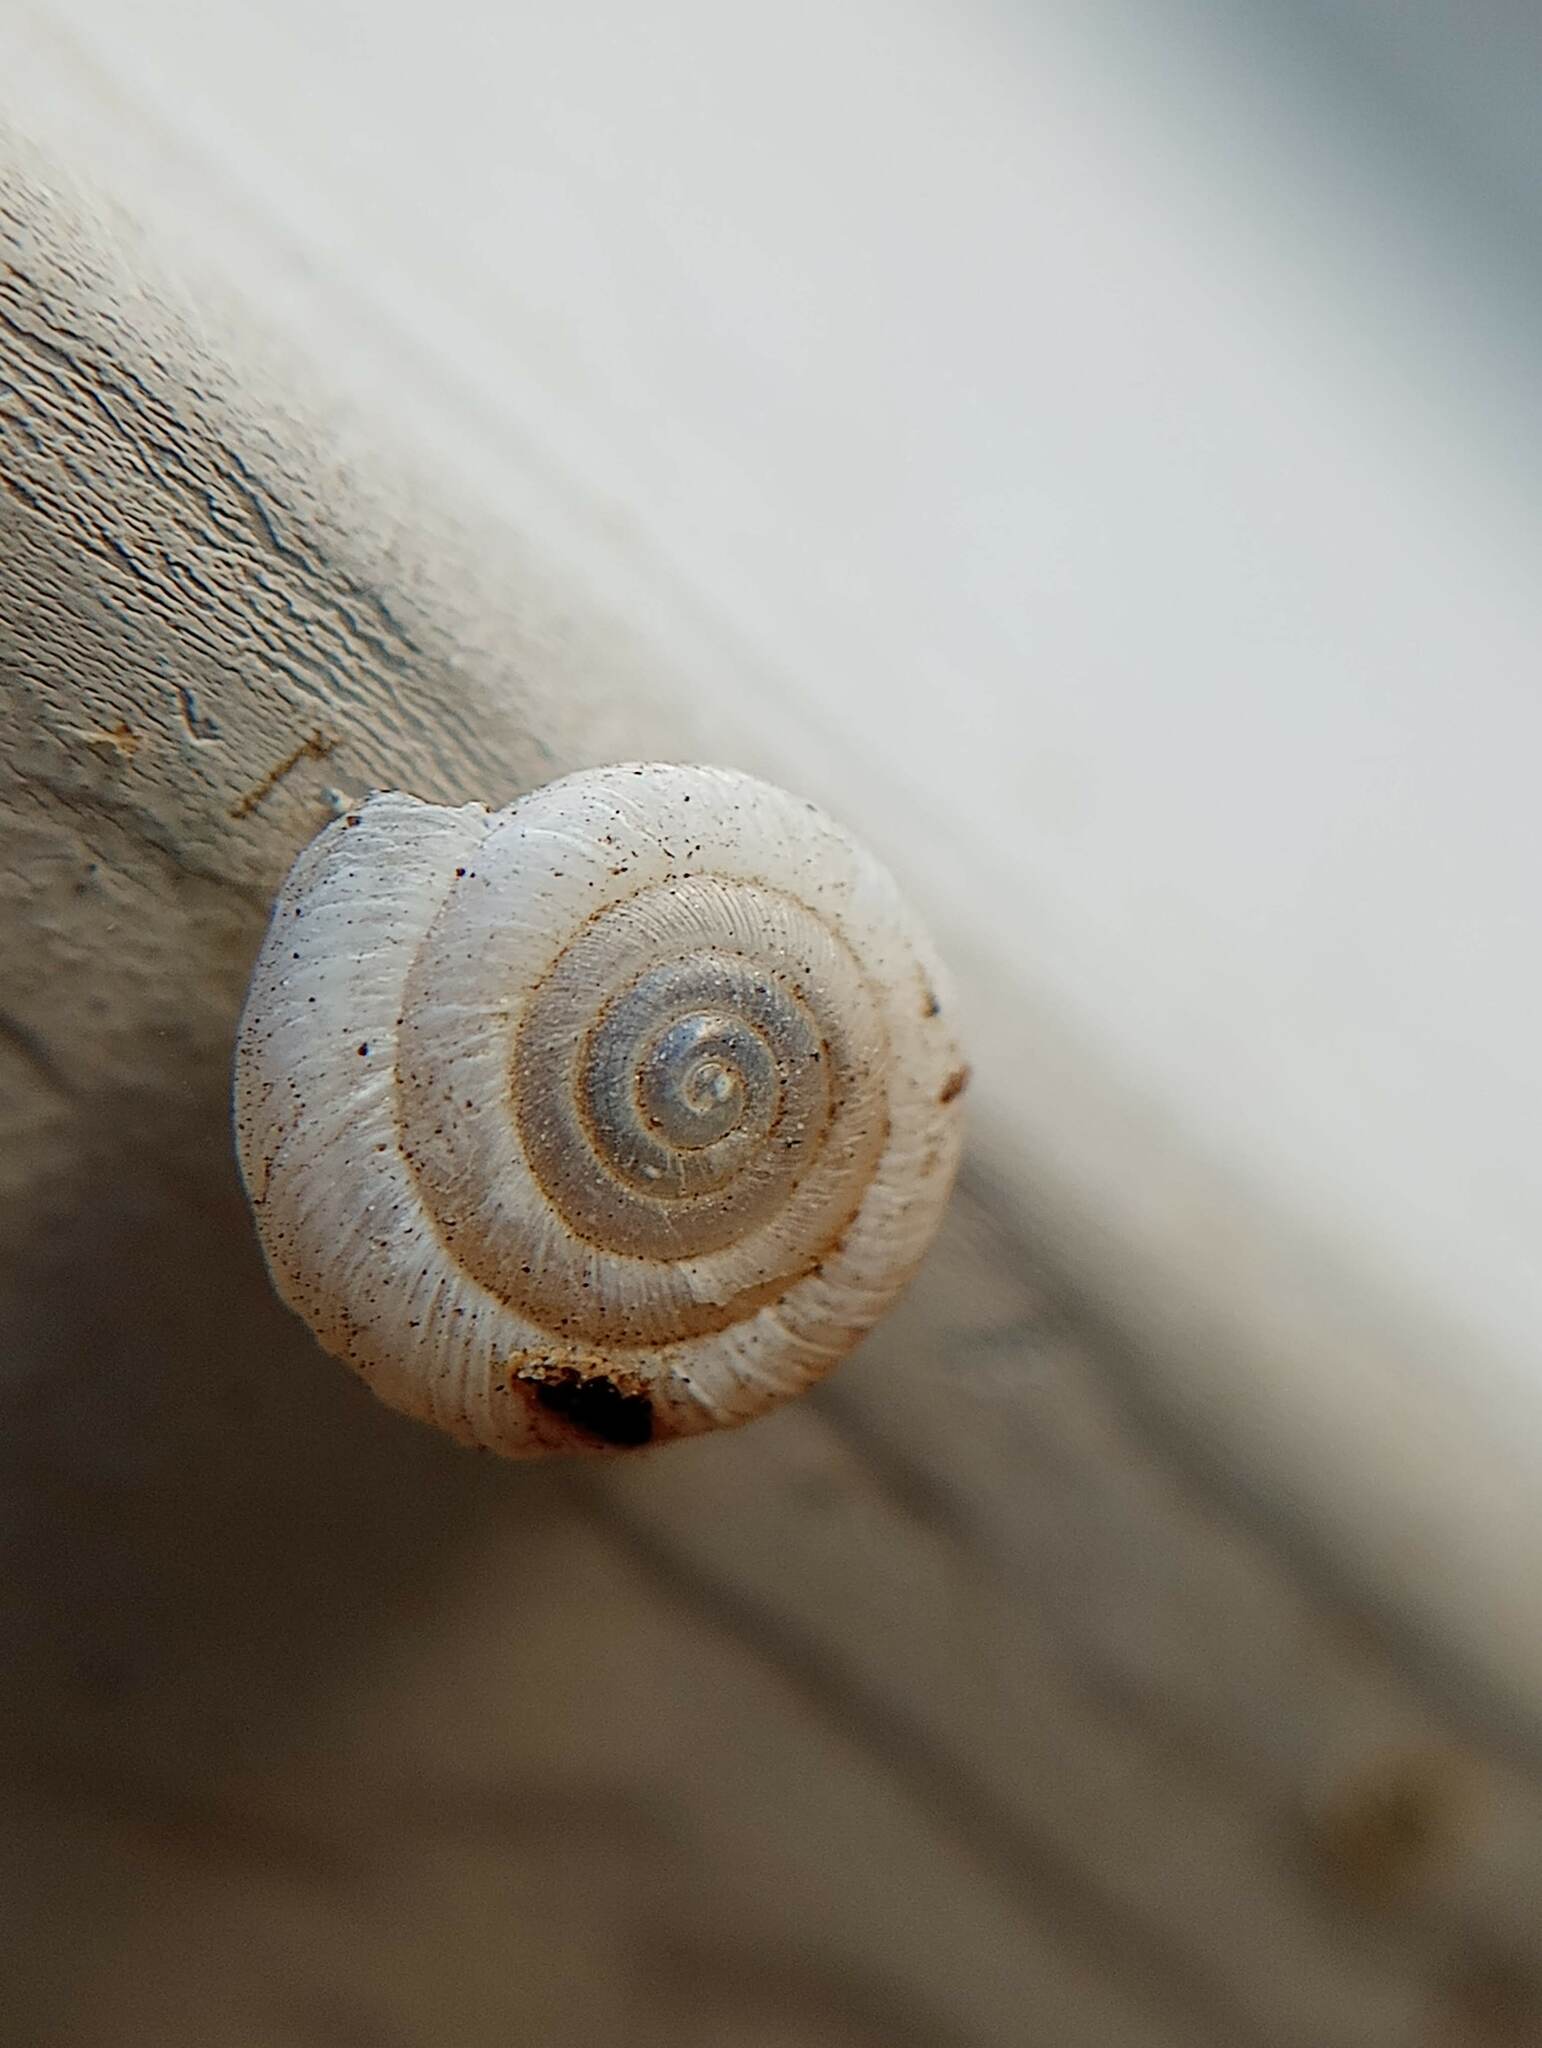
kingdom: Animalia
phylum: Mollusca
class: Gastropoda
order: Stylommatophora
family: Polygyridae
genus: Polygyra
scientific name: Polygyra cereolus
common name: Southern flatcone snail
